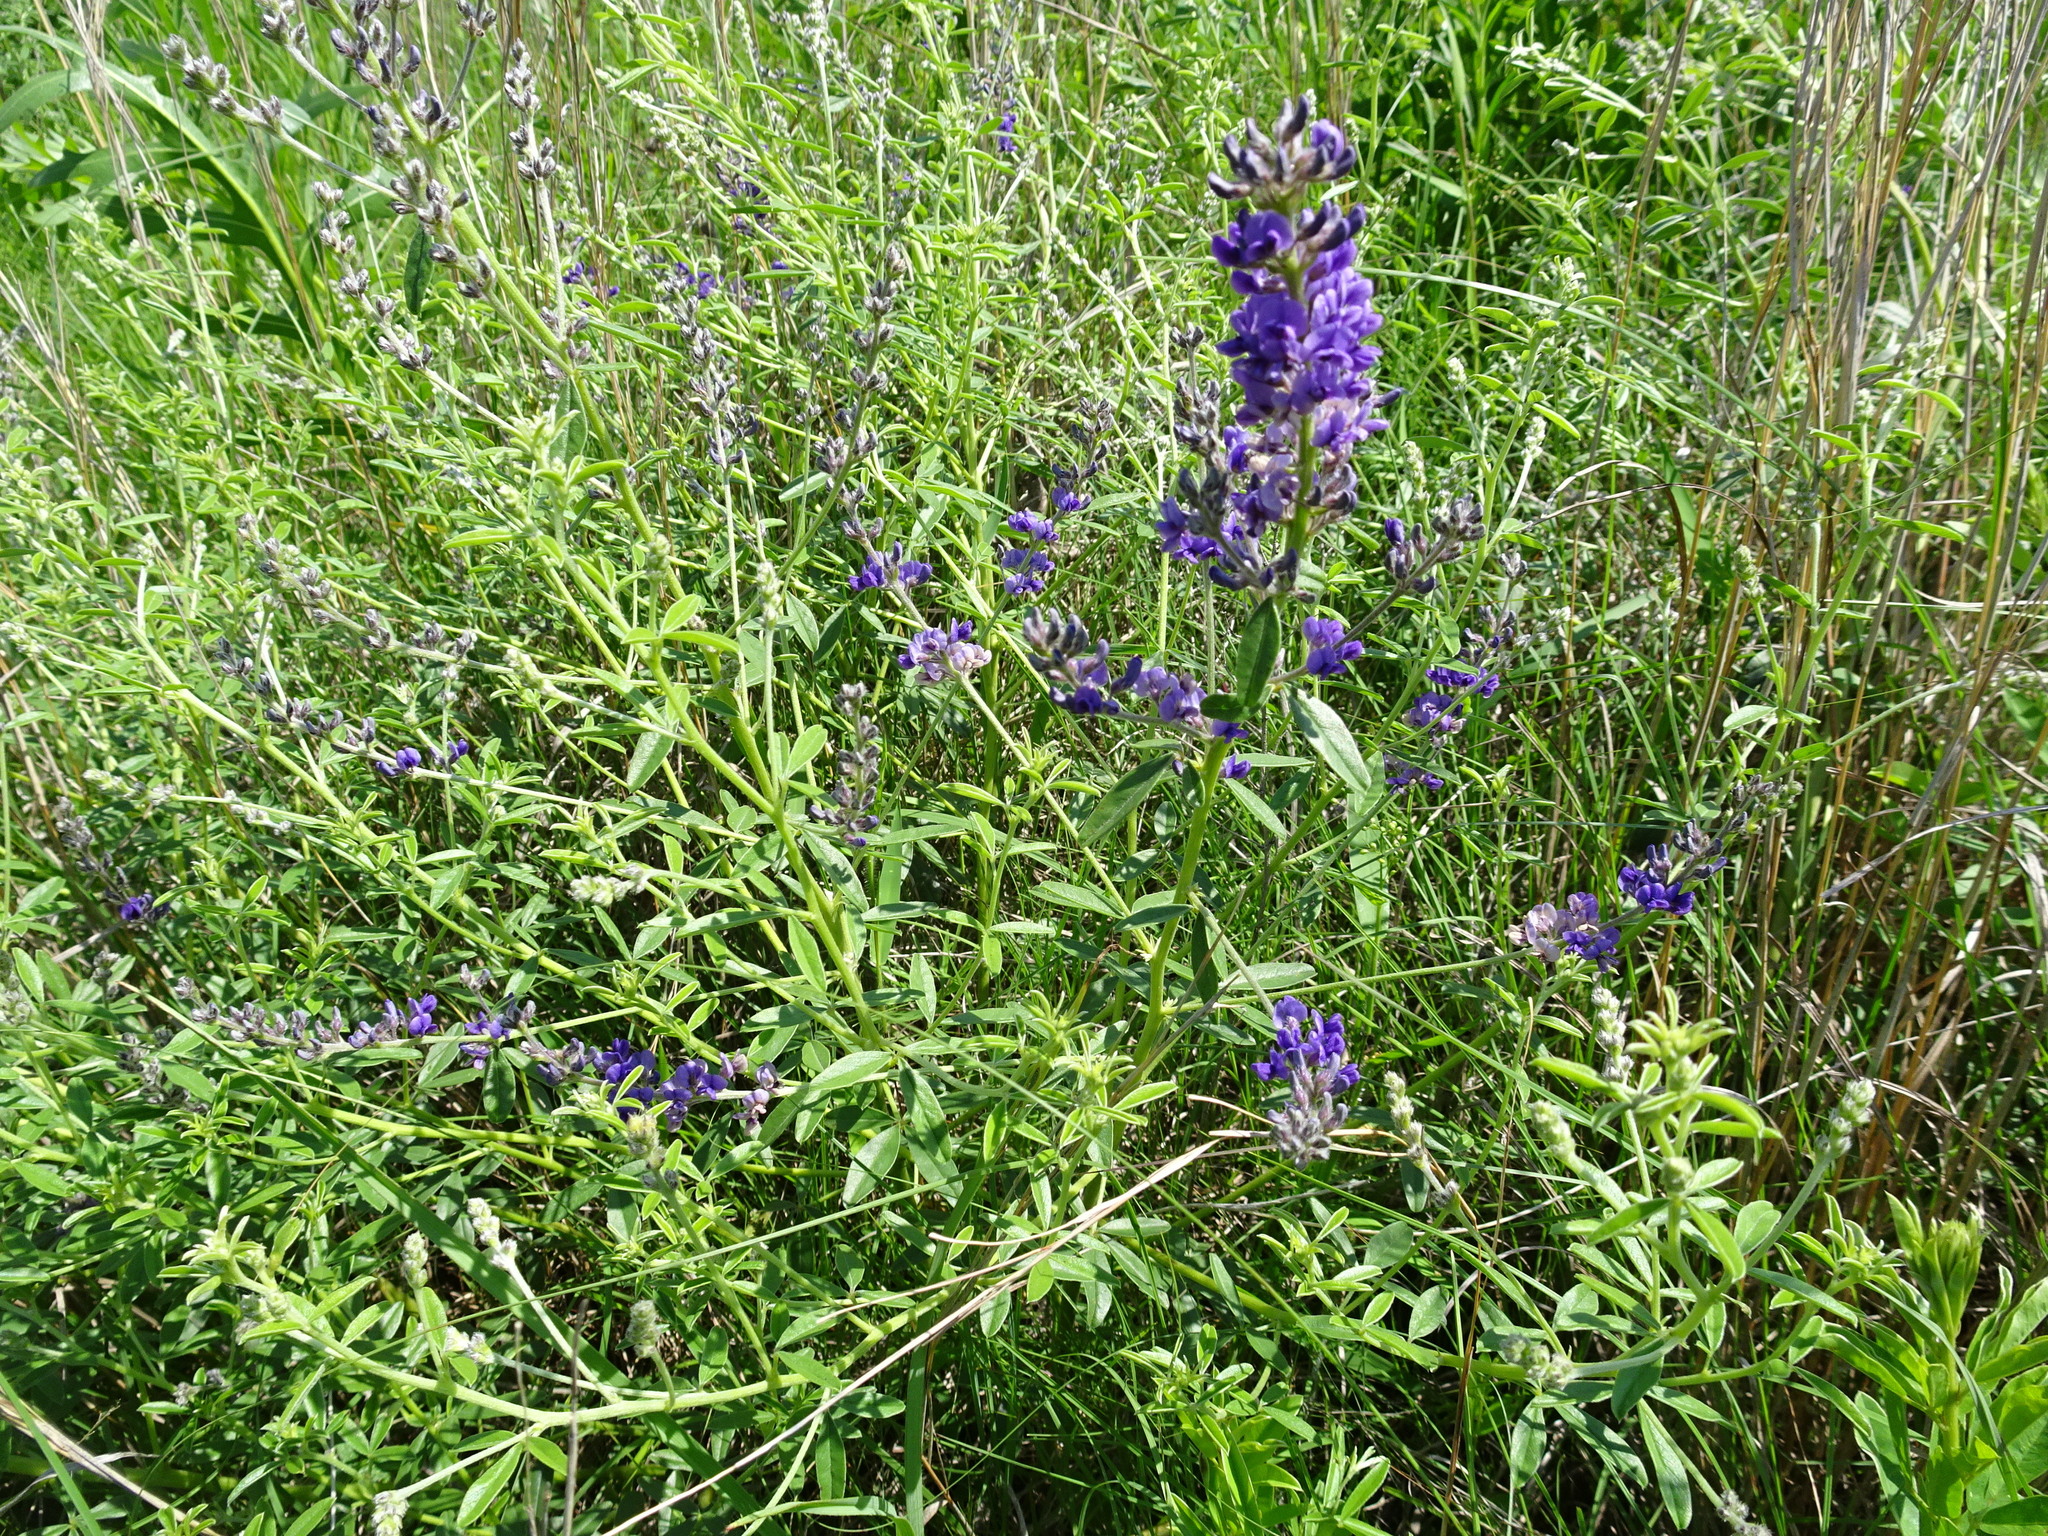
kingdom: Plantae
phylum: Tracheophyta
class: Magnoliopsida
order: Fabales
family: Fabaceae
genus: Pediomelum
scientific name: Pediomelum tenuiflorum
